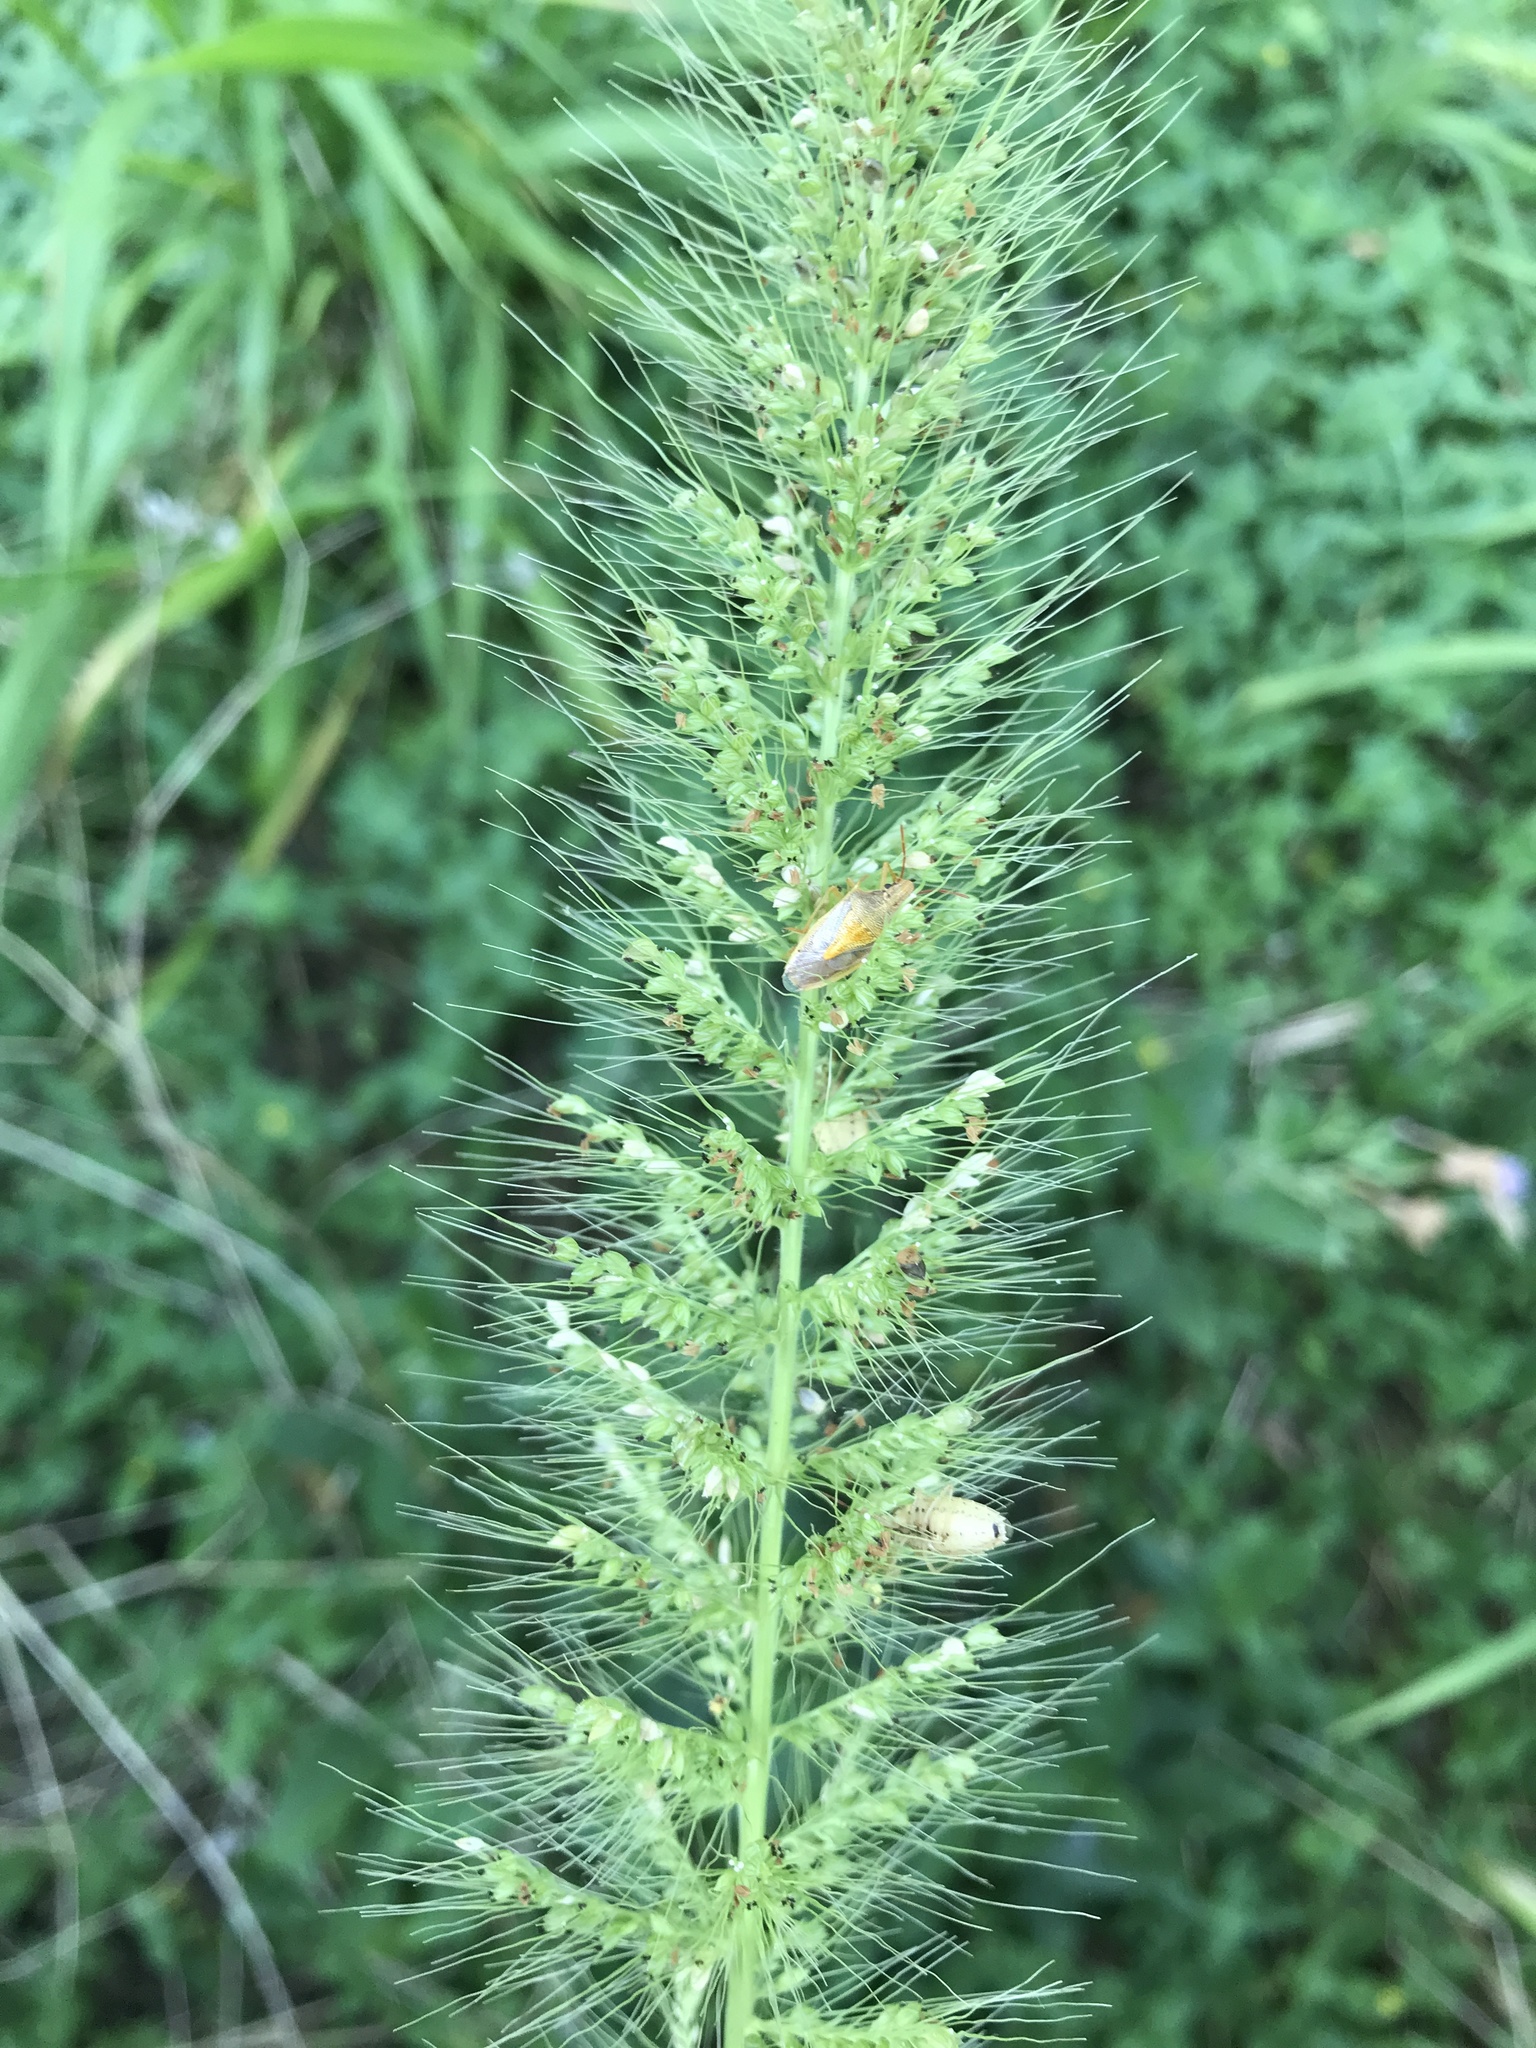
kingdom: Animalia
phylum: Arthropoda
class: Insecta
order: Hemiptera
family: Pentatomidae
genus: Oebalus
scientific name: Oebalus pugnax
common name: Rice stink bug
